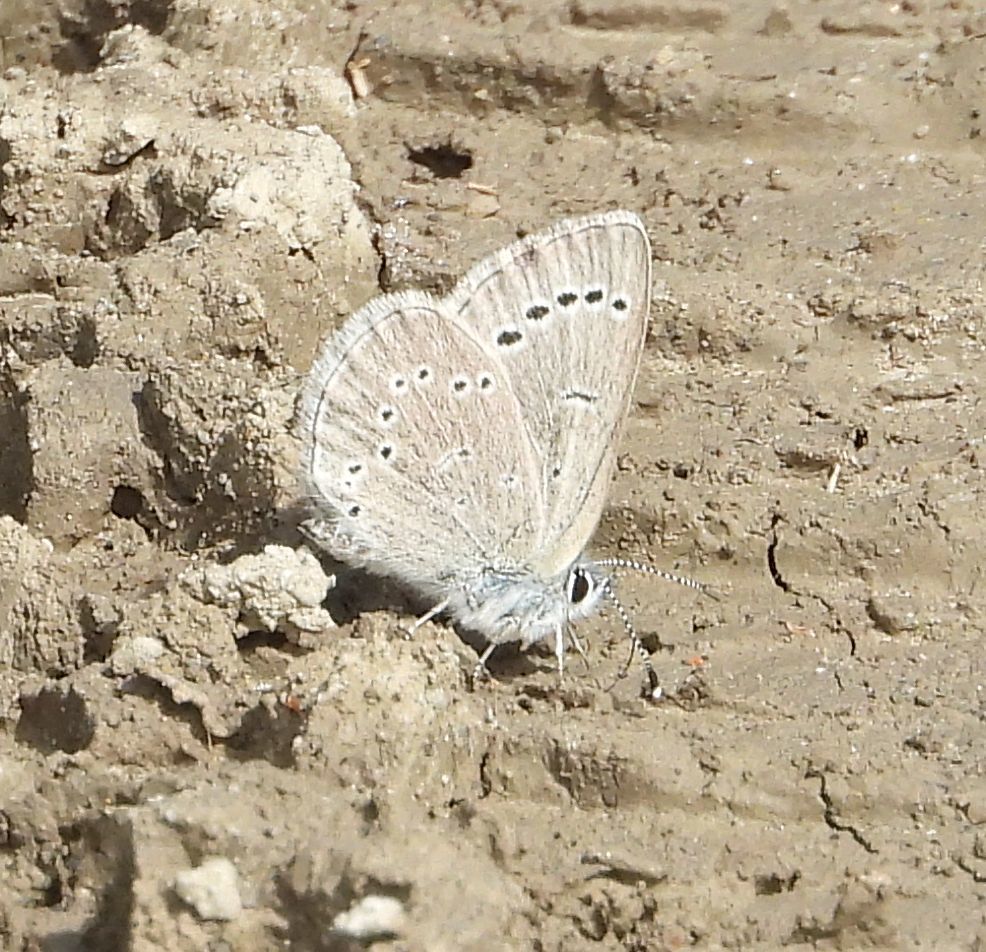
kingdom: Animalia
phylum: Arthropoda
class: Insecta
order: Lepidoptera
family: Lycaenidae
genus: Glaucopsyche
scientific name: Glaucopsyche lygdamus
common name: Silvery blue
